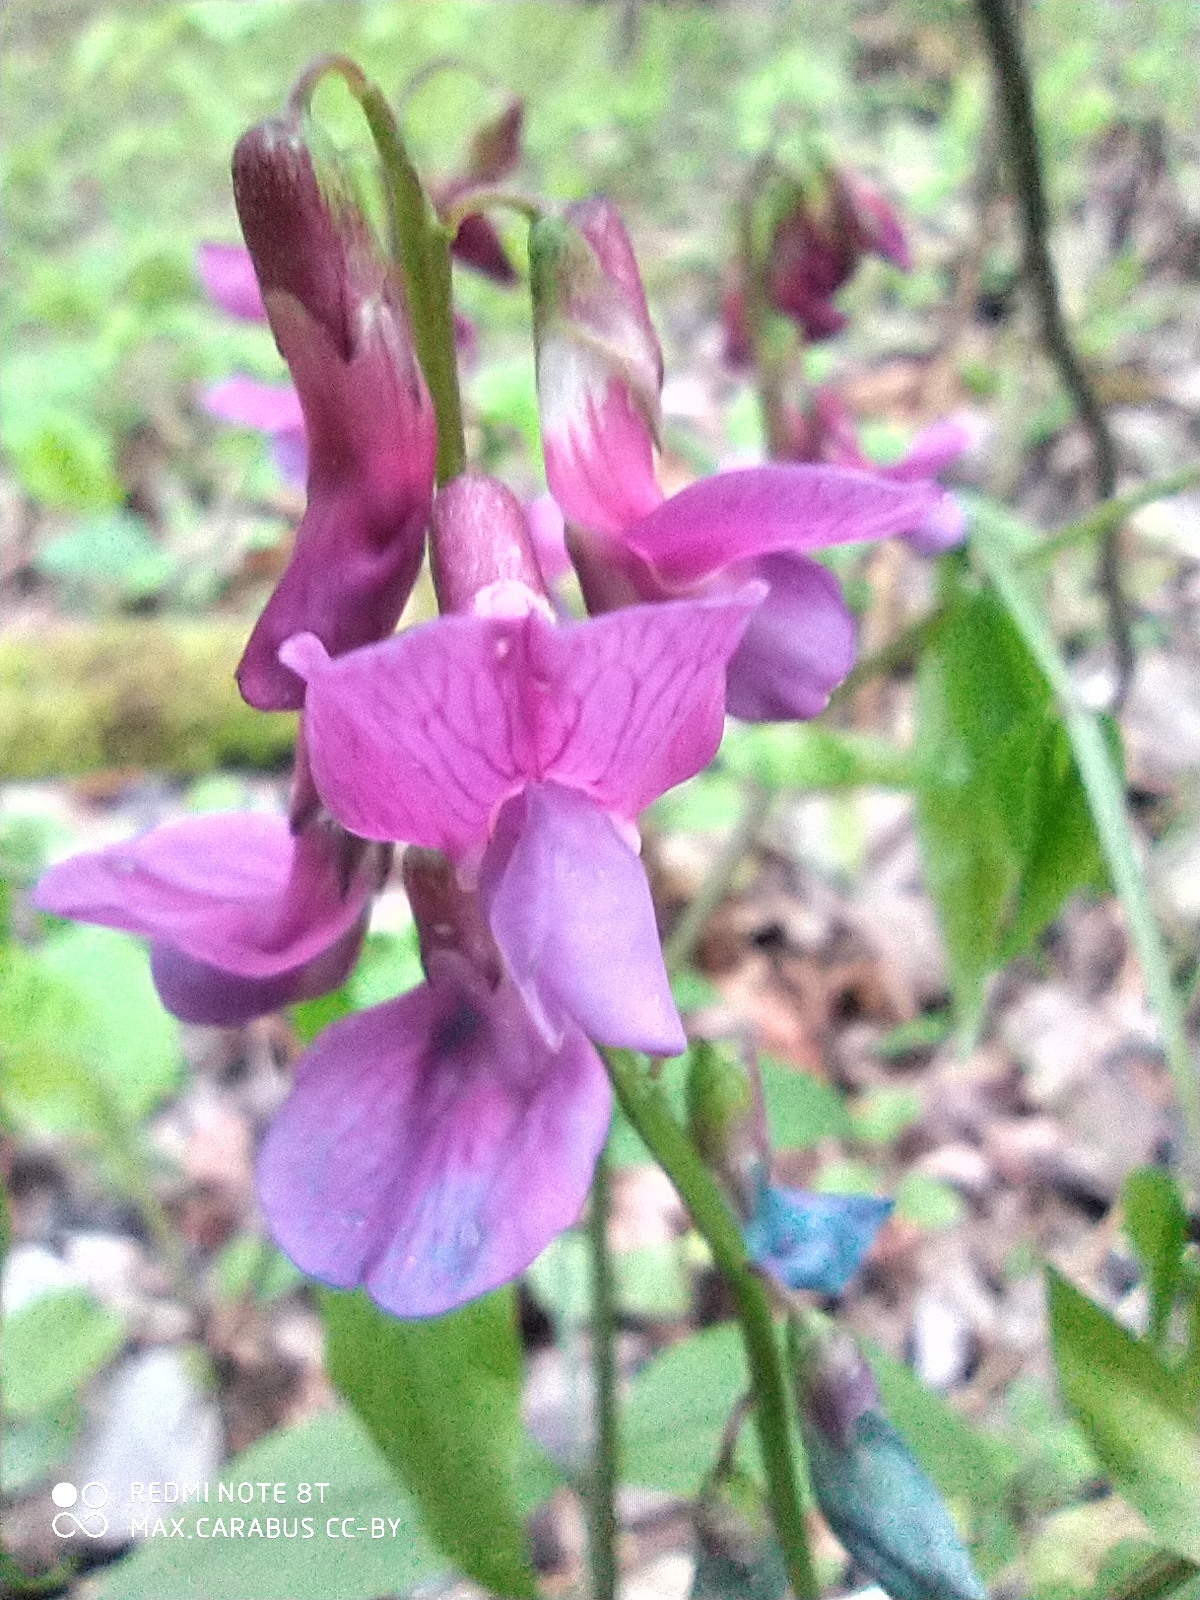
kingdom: Plantae
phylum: Tracheophyta
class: Magnoliopsida
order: Fabales
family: Fabaceae
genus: Lathyrus
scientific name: Lathyrus vernus
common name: Spring pea
